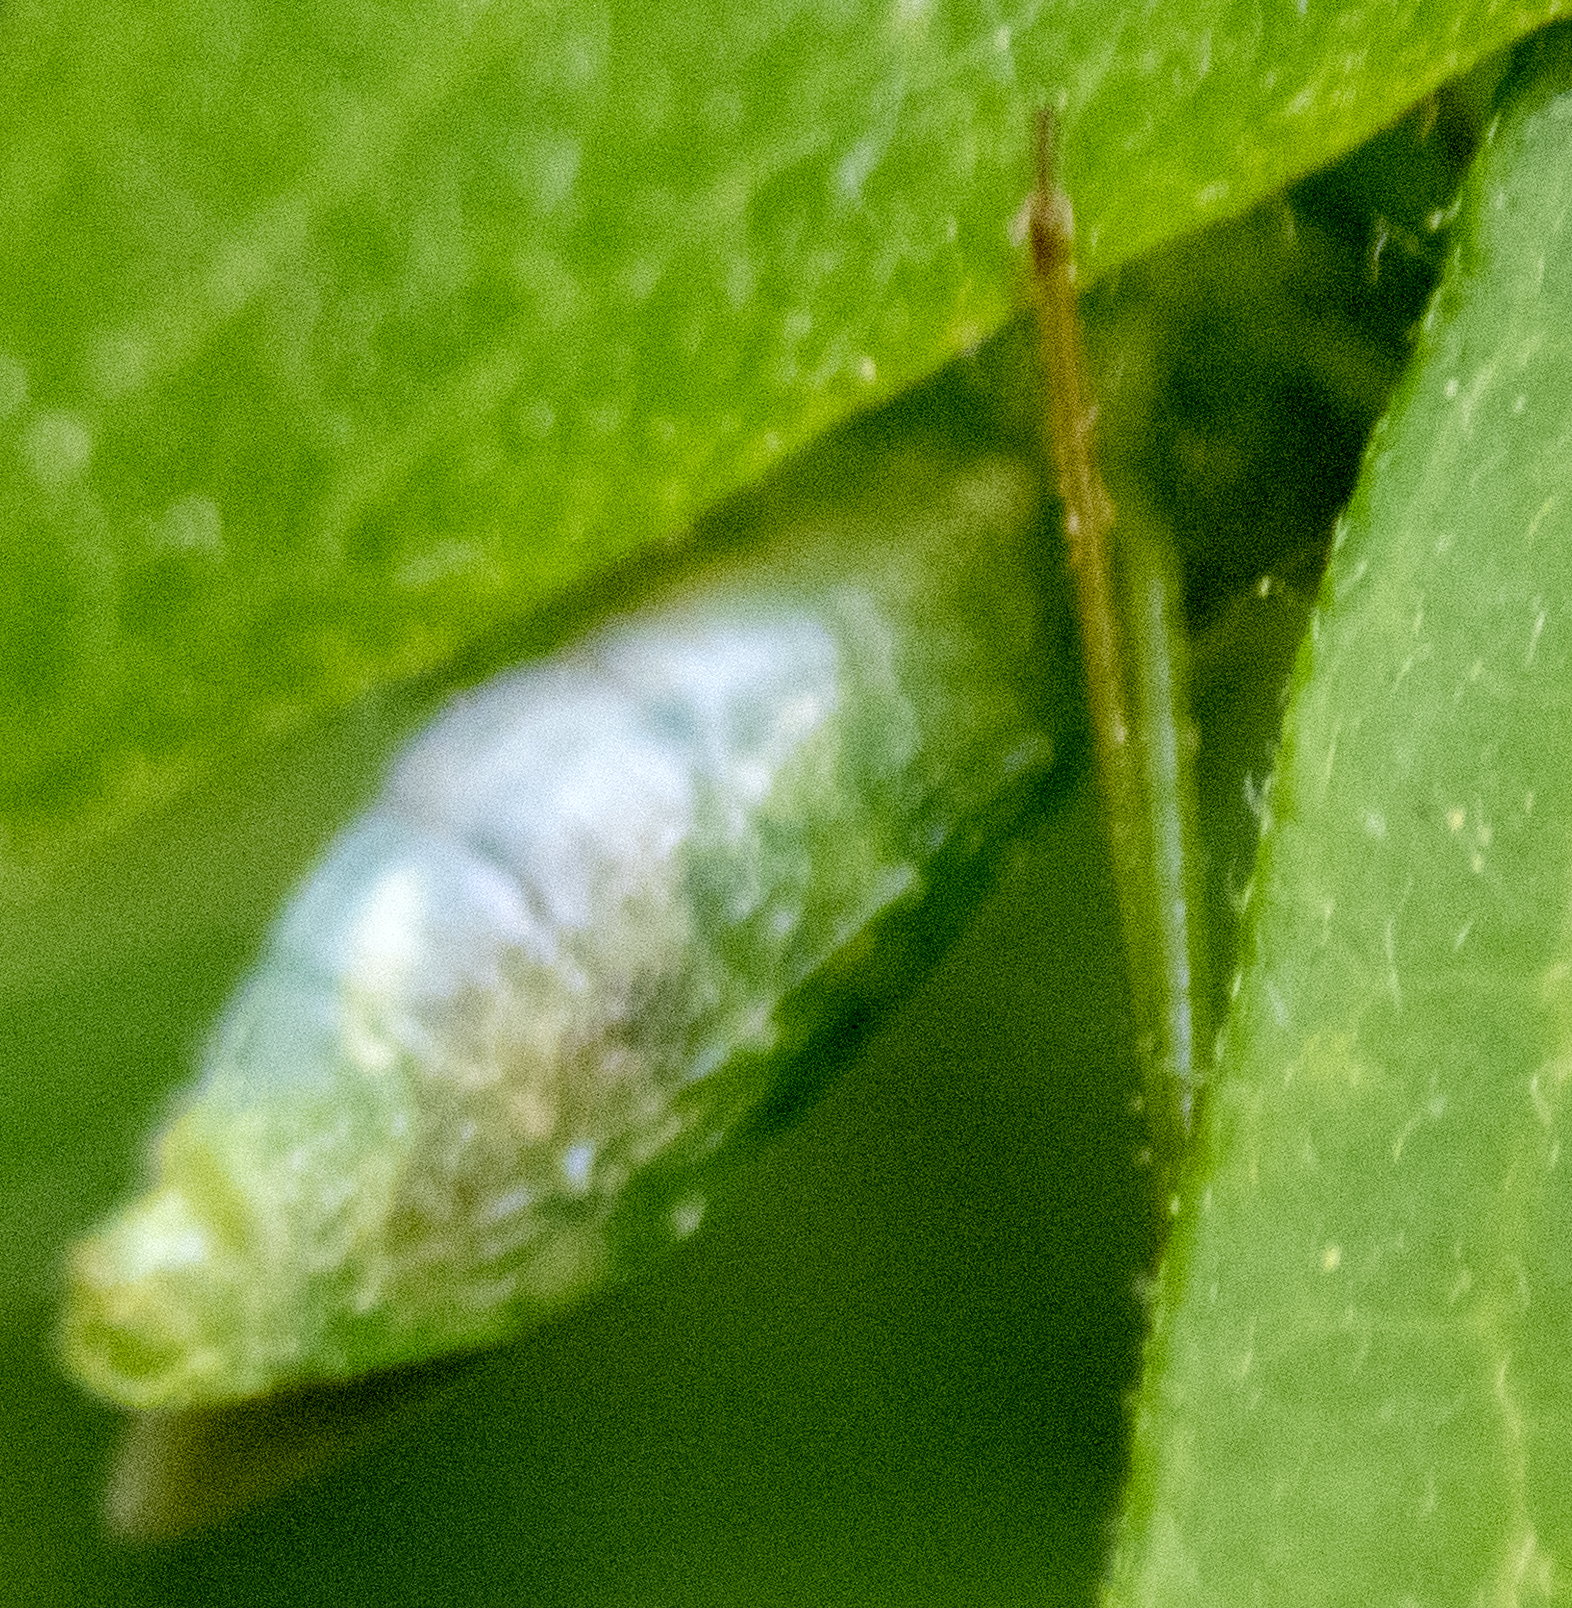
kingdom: Animalia
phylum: Arthropoda
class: Insecta
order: Hemiptera
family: Reduviidae
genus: Zelus
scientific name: Zelus luridus
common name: Pale green assassin bug
